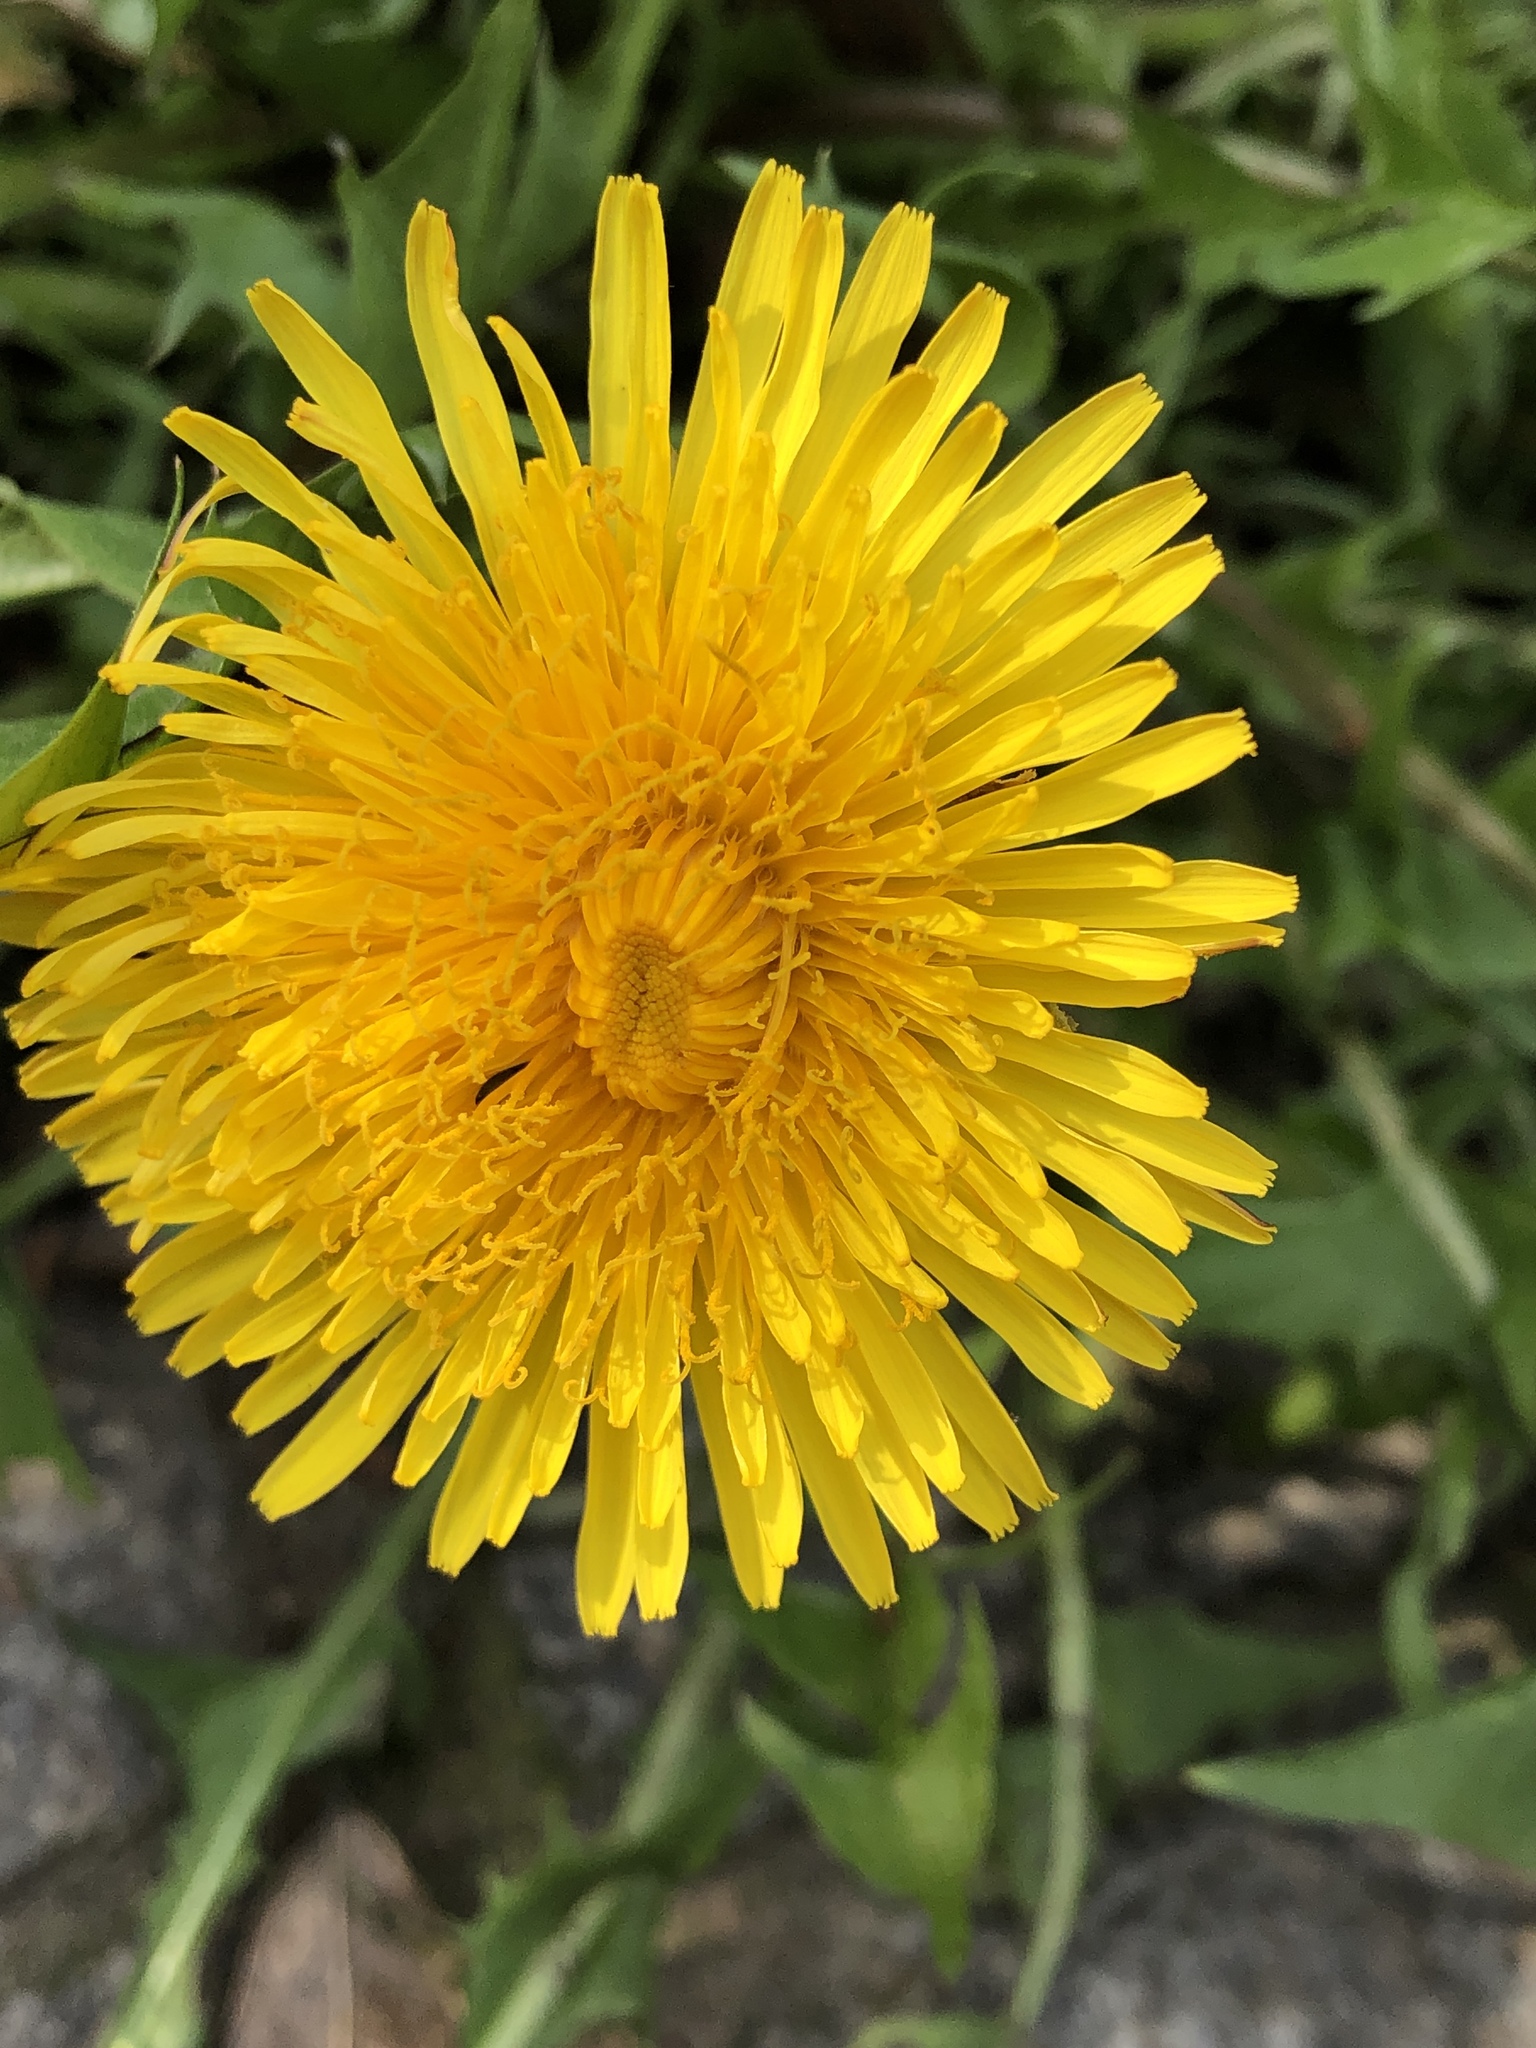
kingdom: Plantae
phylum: Tracheophyta
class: Magnoliopsida
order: Asterales
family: Asteraceae
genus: Taraxacum
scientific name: Taraxacum officinale
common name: Common dandelion
